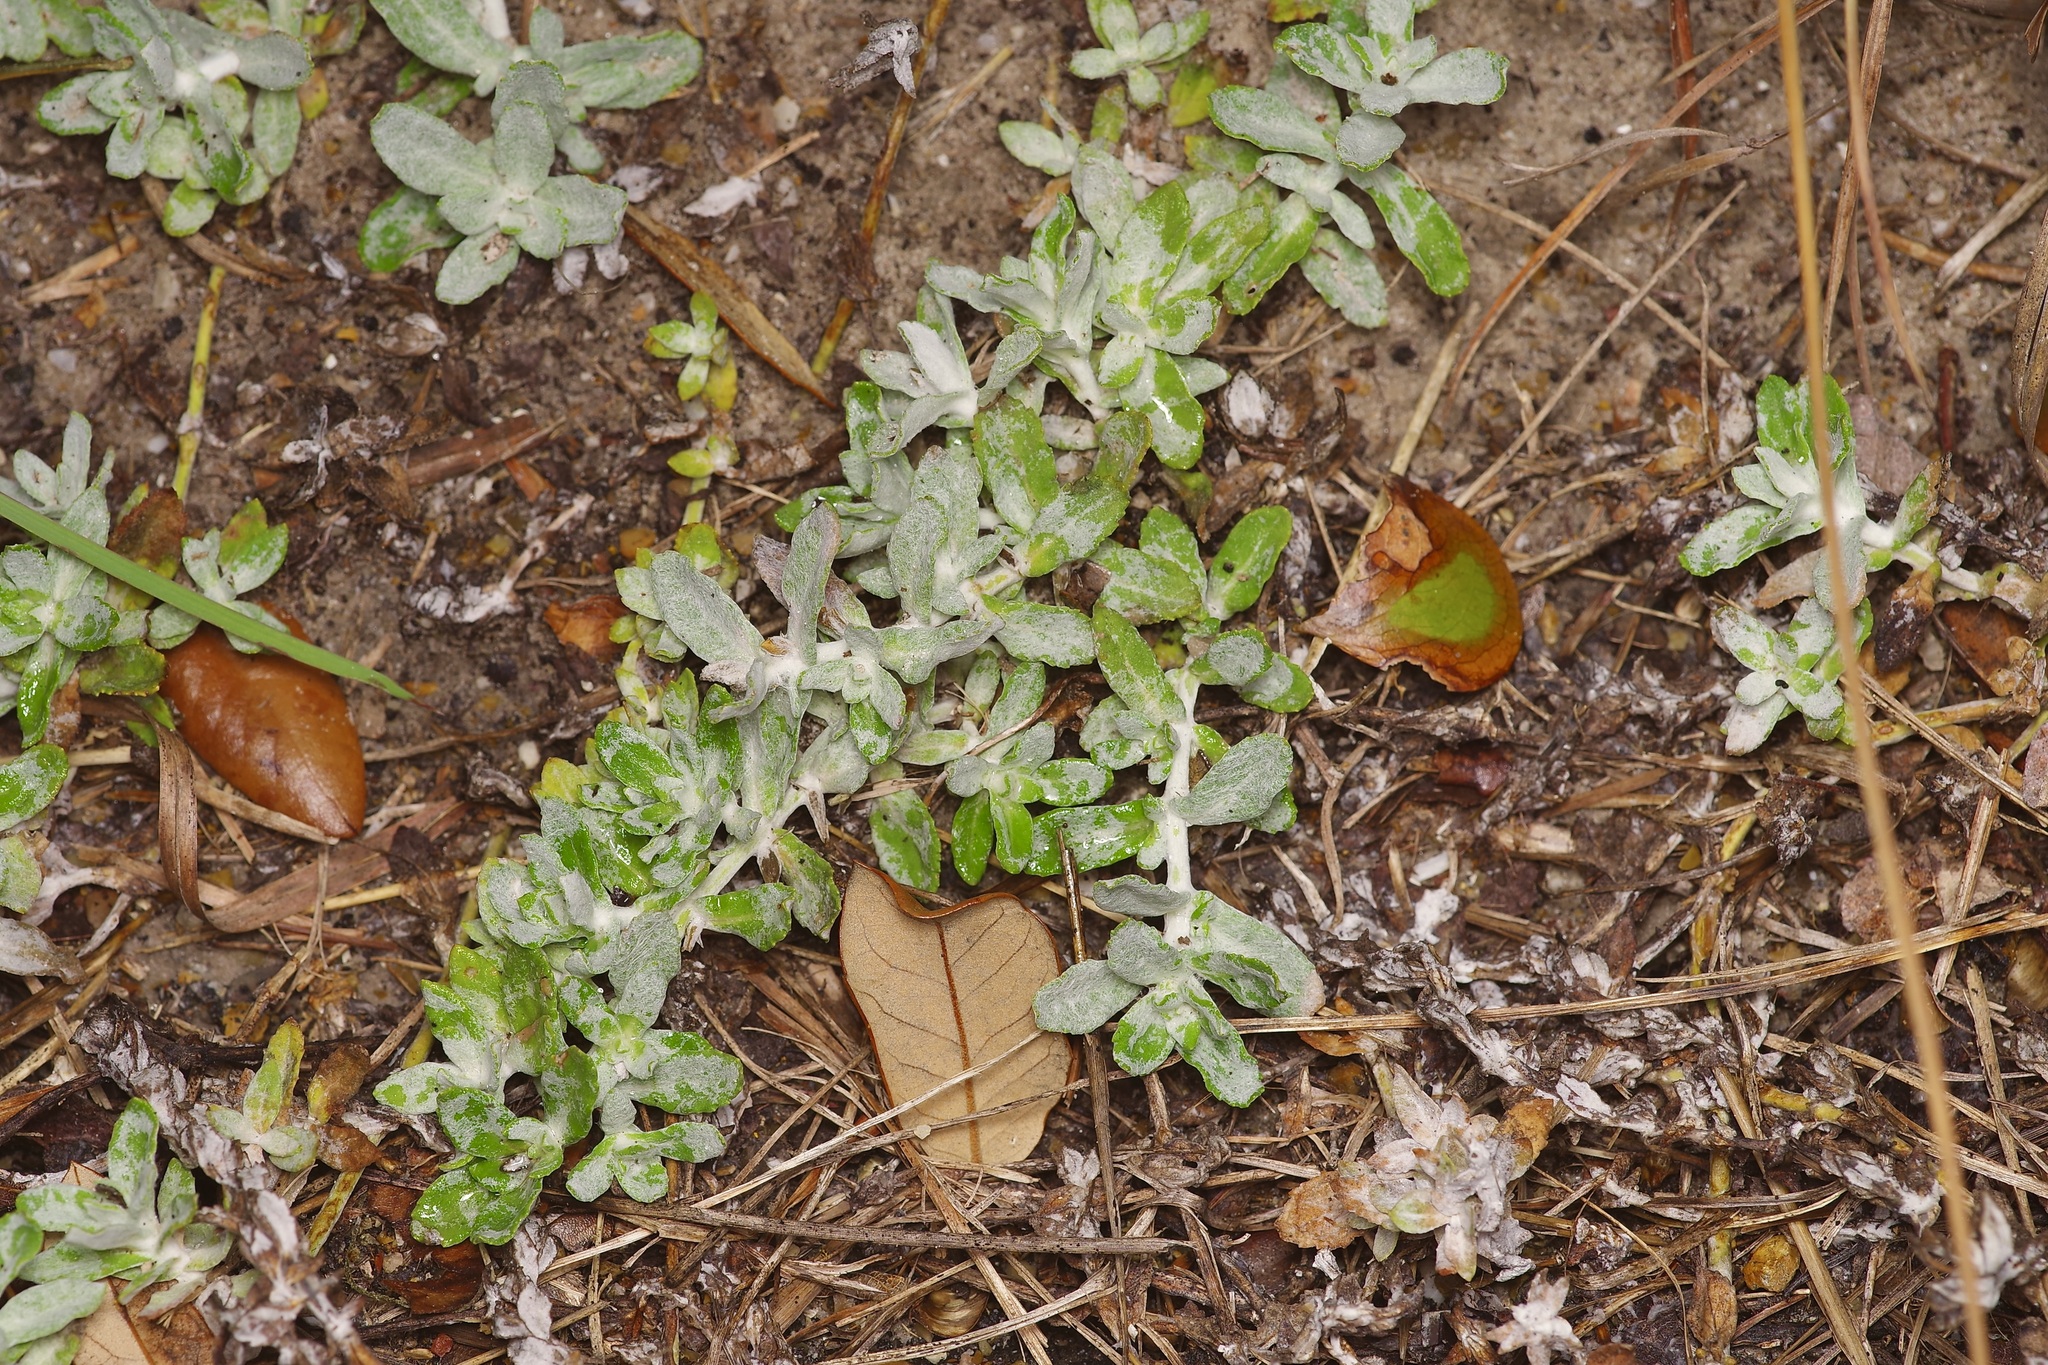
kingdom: Plantae
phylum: Tracheophyta
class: Magnoliopsida
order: Lamiales
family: Plantaginaceae
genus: Stemodia
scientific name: Stemodia lanata
